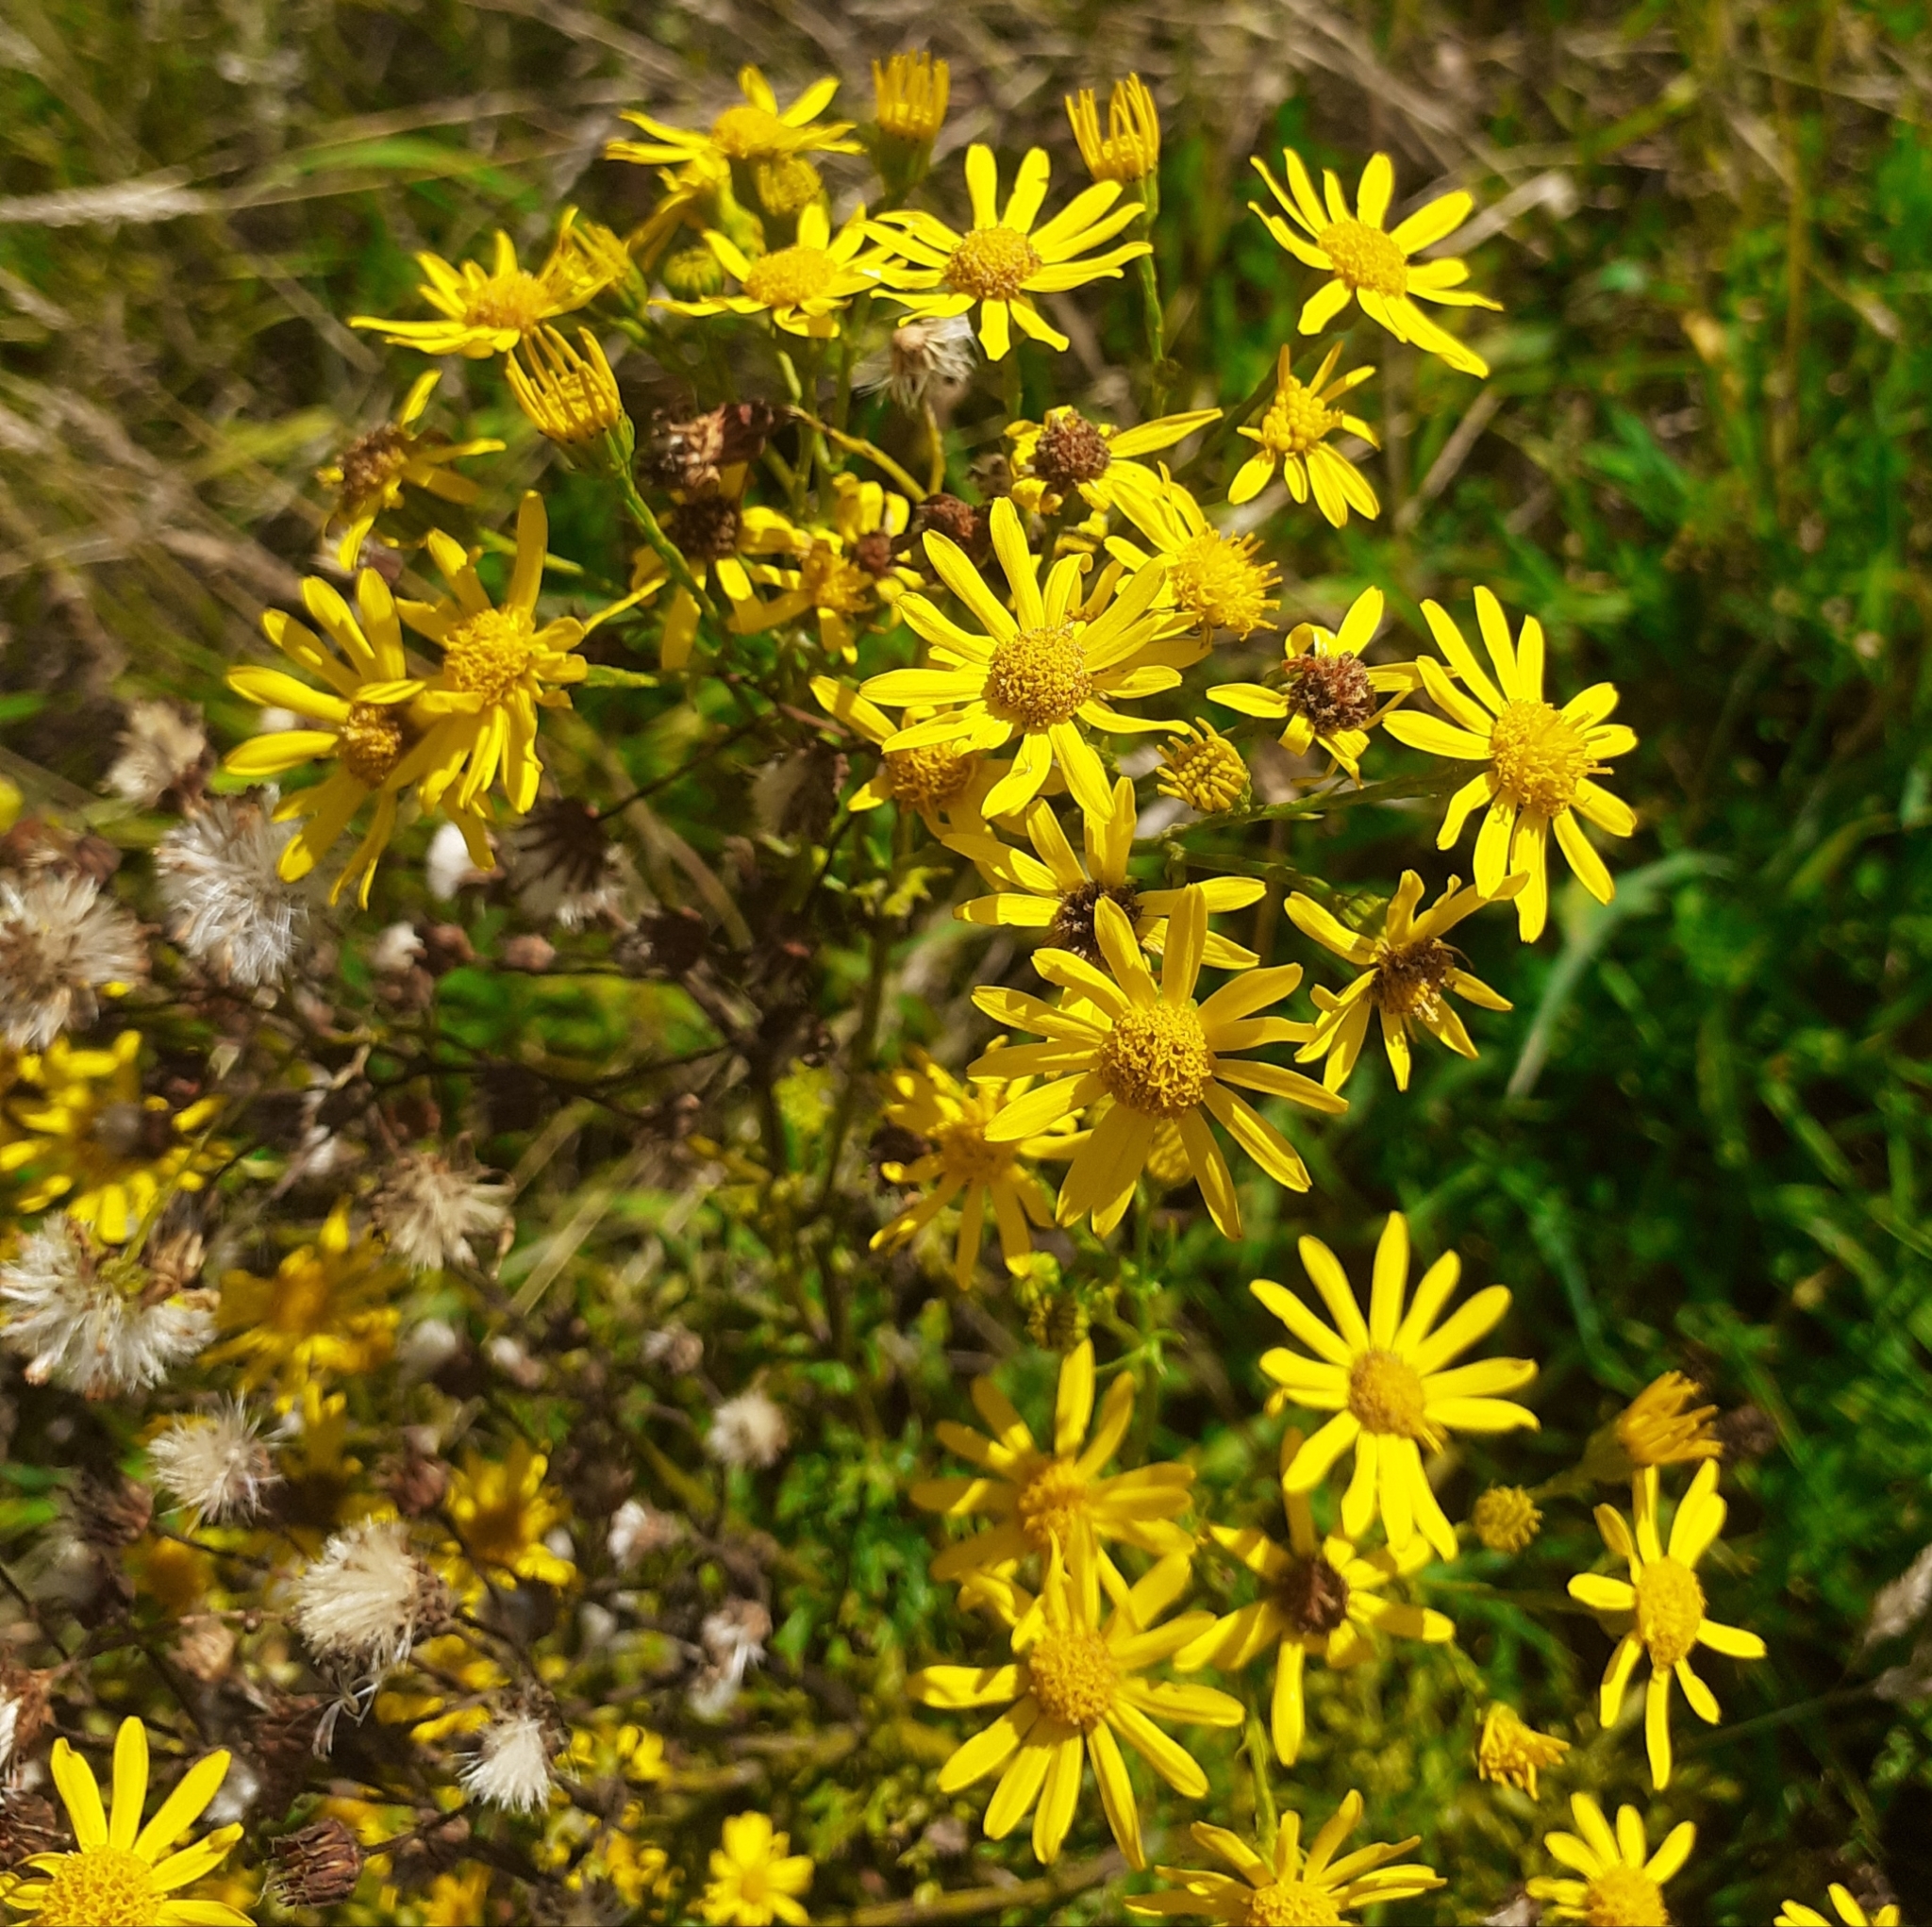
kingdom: Plantae
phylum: Tracheophyta
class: Magnoliopsida
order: Asterales
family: Asteraceae
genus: Jacobaea
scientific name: Jacobaea vulgaris
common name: Stinking willie
